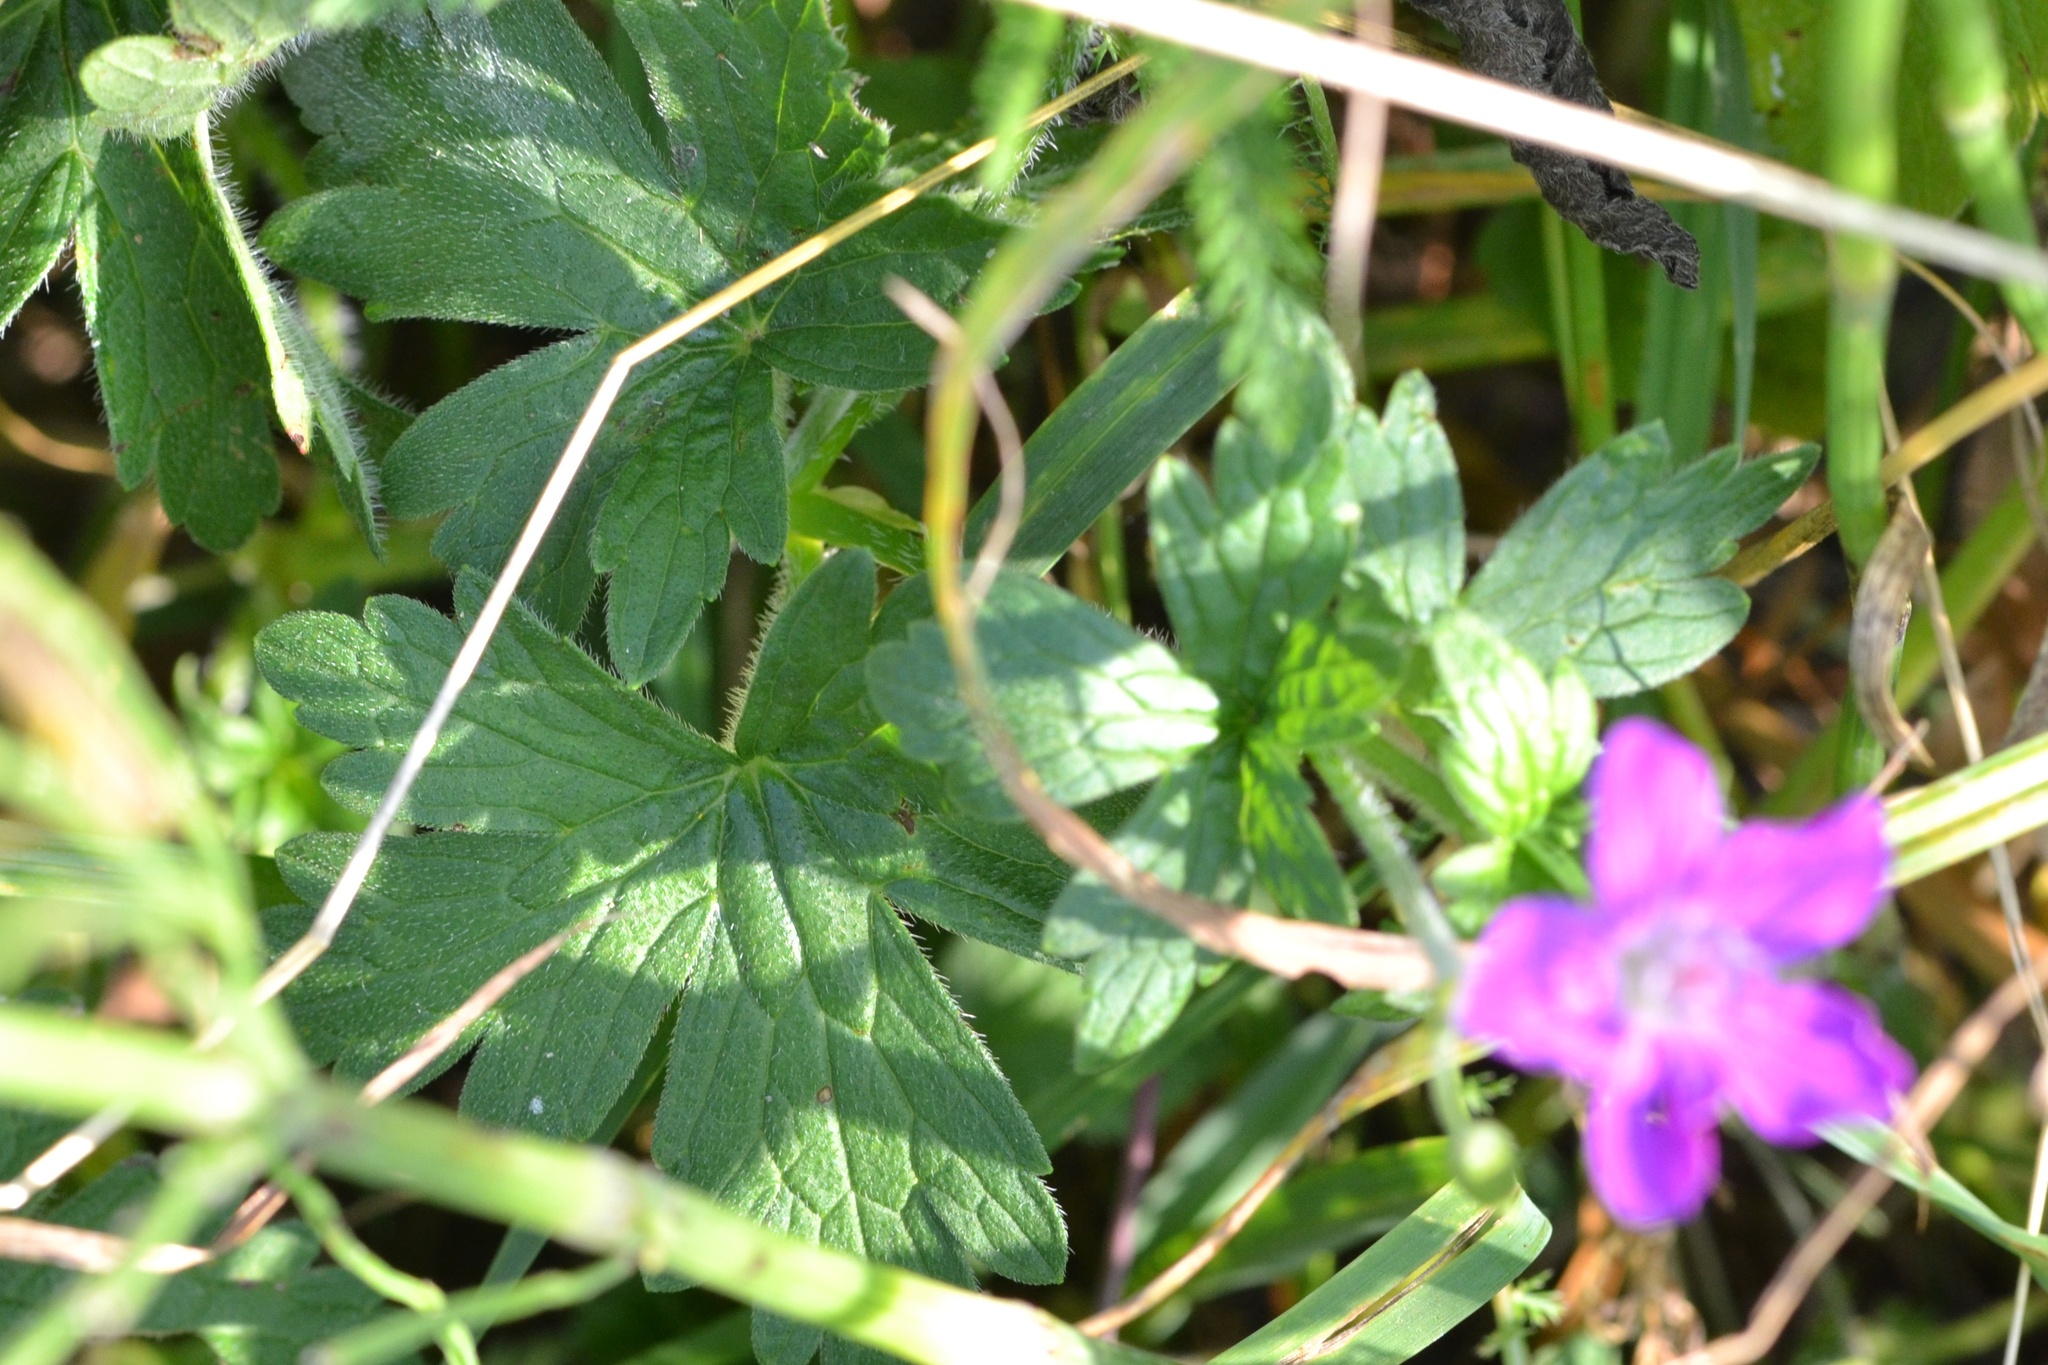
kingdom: Plantae
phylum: Tracheophyta
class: Magnoliopsida
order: Geraniales
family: Geraniaceae
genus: Geranium
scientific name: Geranium palustre
